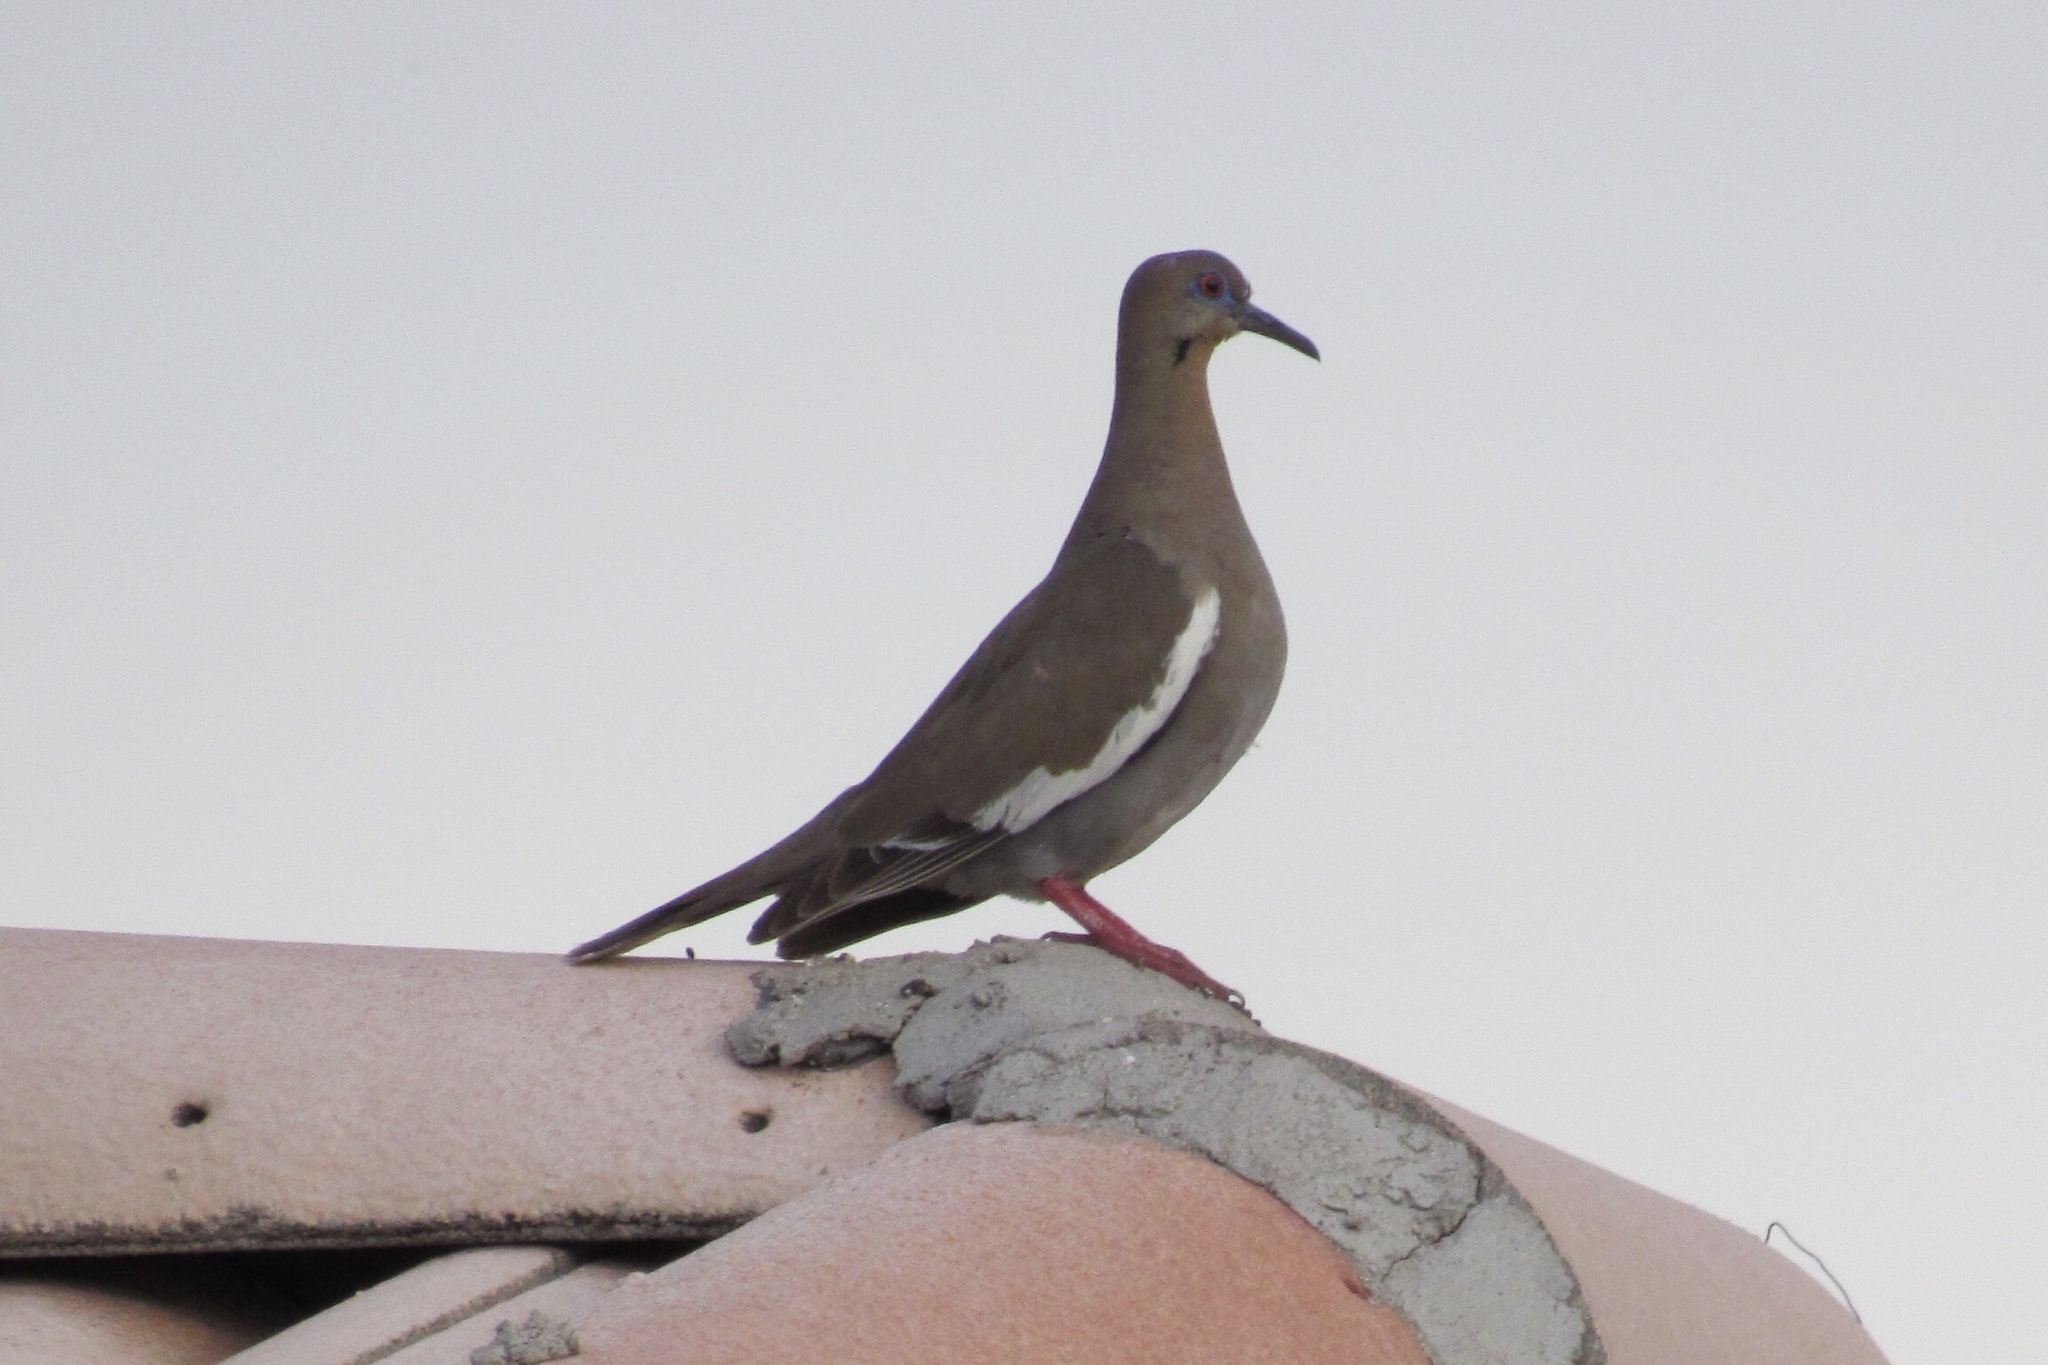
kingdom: Animalia
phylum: Chordata
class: Aves
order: Columbiformes
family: Columbidae
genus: Zenaida
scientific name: Zenaida asiatica
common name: White-winged dove
